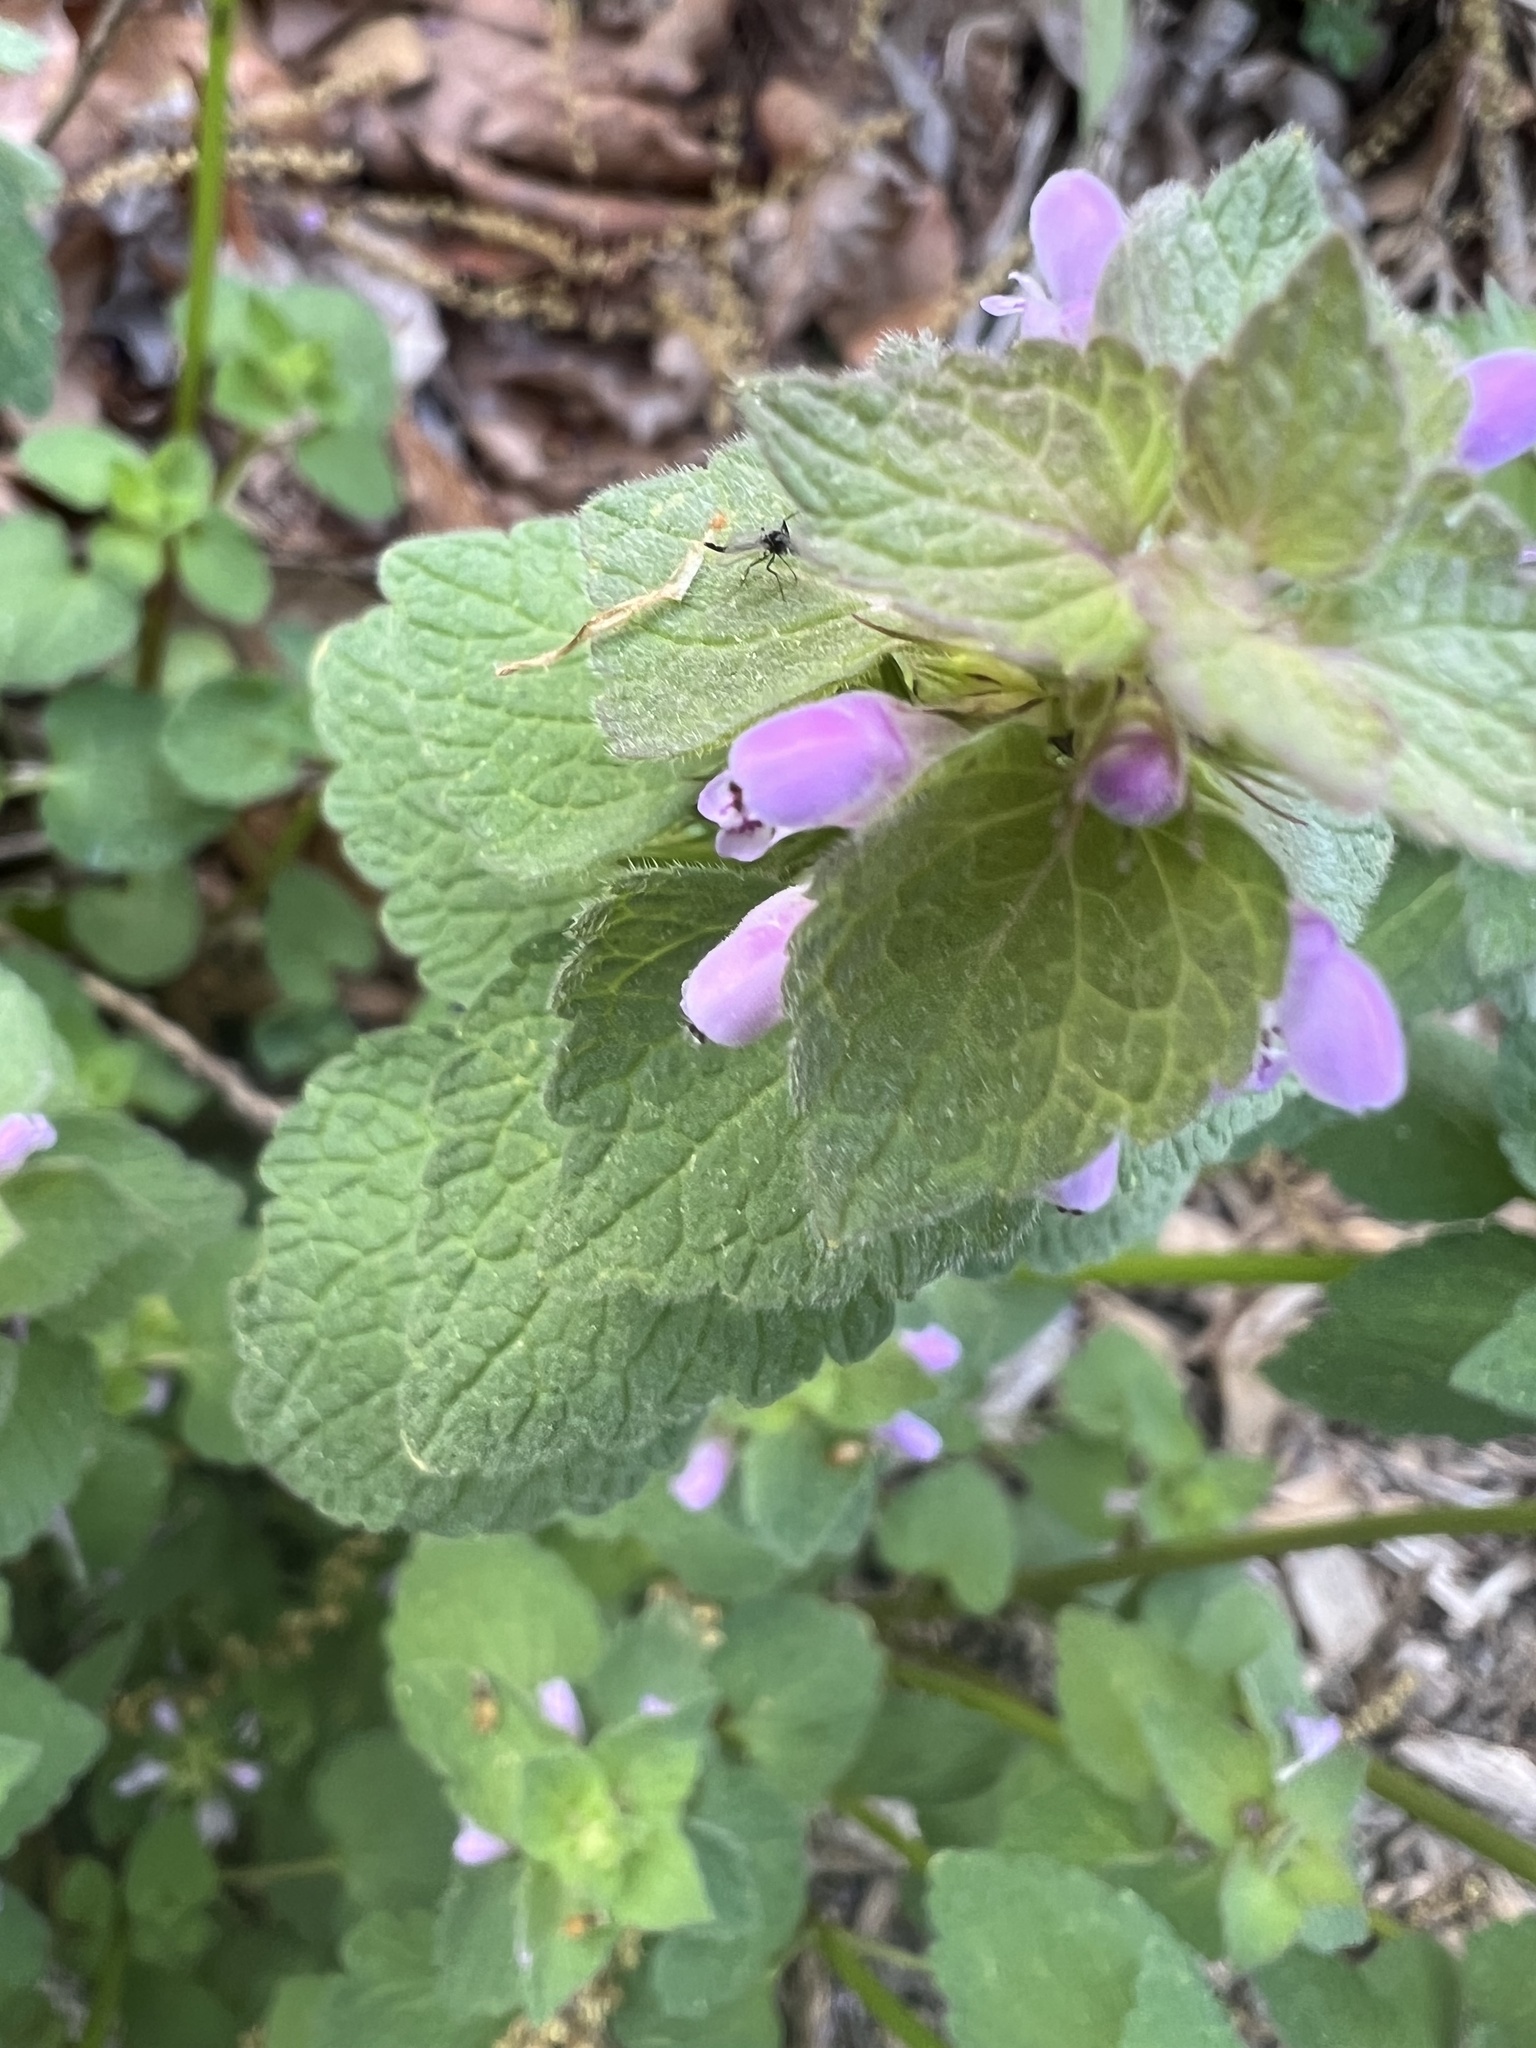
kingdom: Plantae
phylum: Tracheophyta
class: Magnoliopsida
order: Lamiales
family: Lamiaceae
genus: Lamium
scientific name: Lamium purpureum
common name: Red dead-nettle
